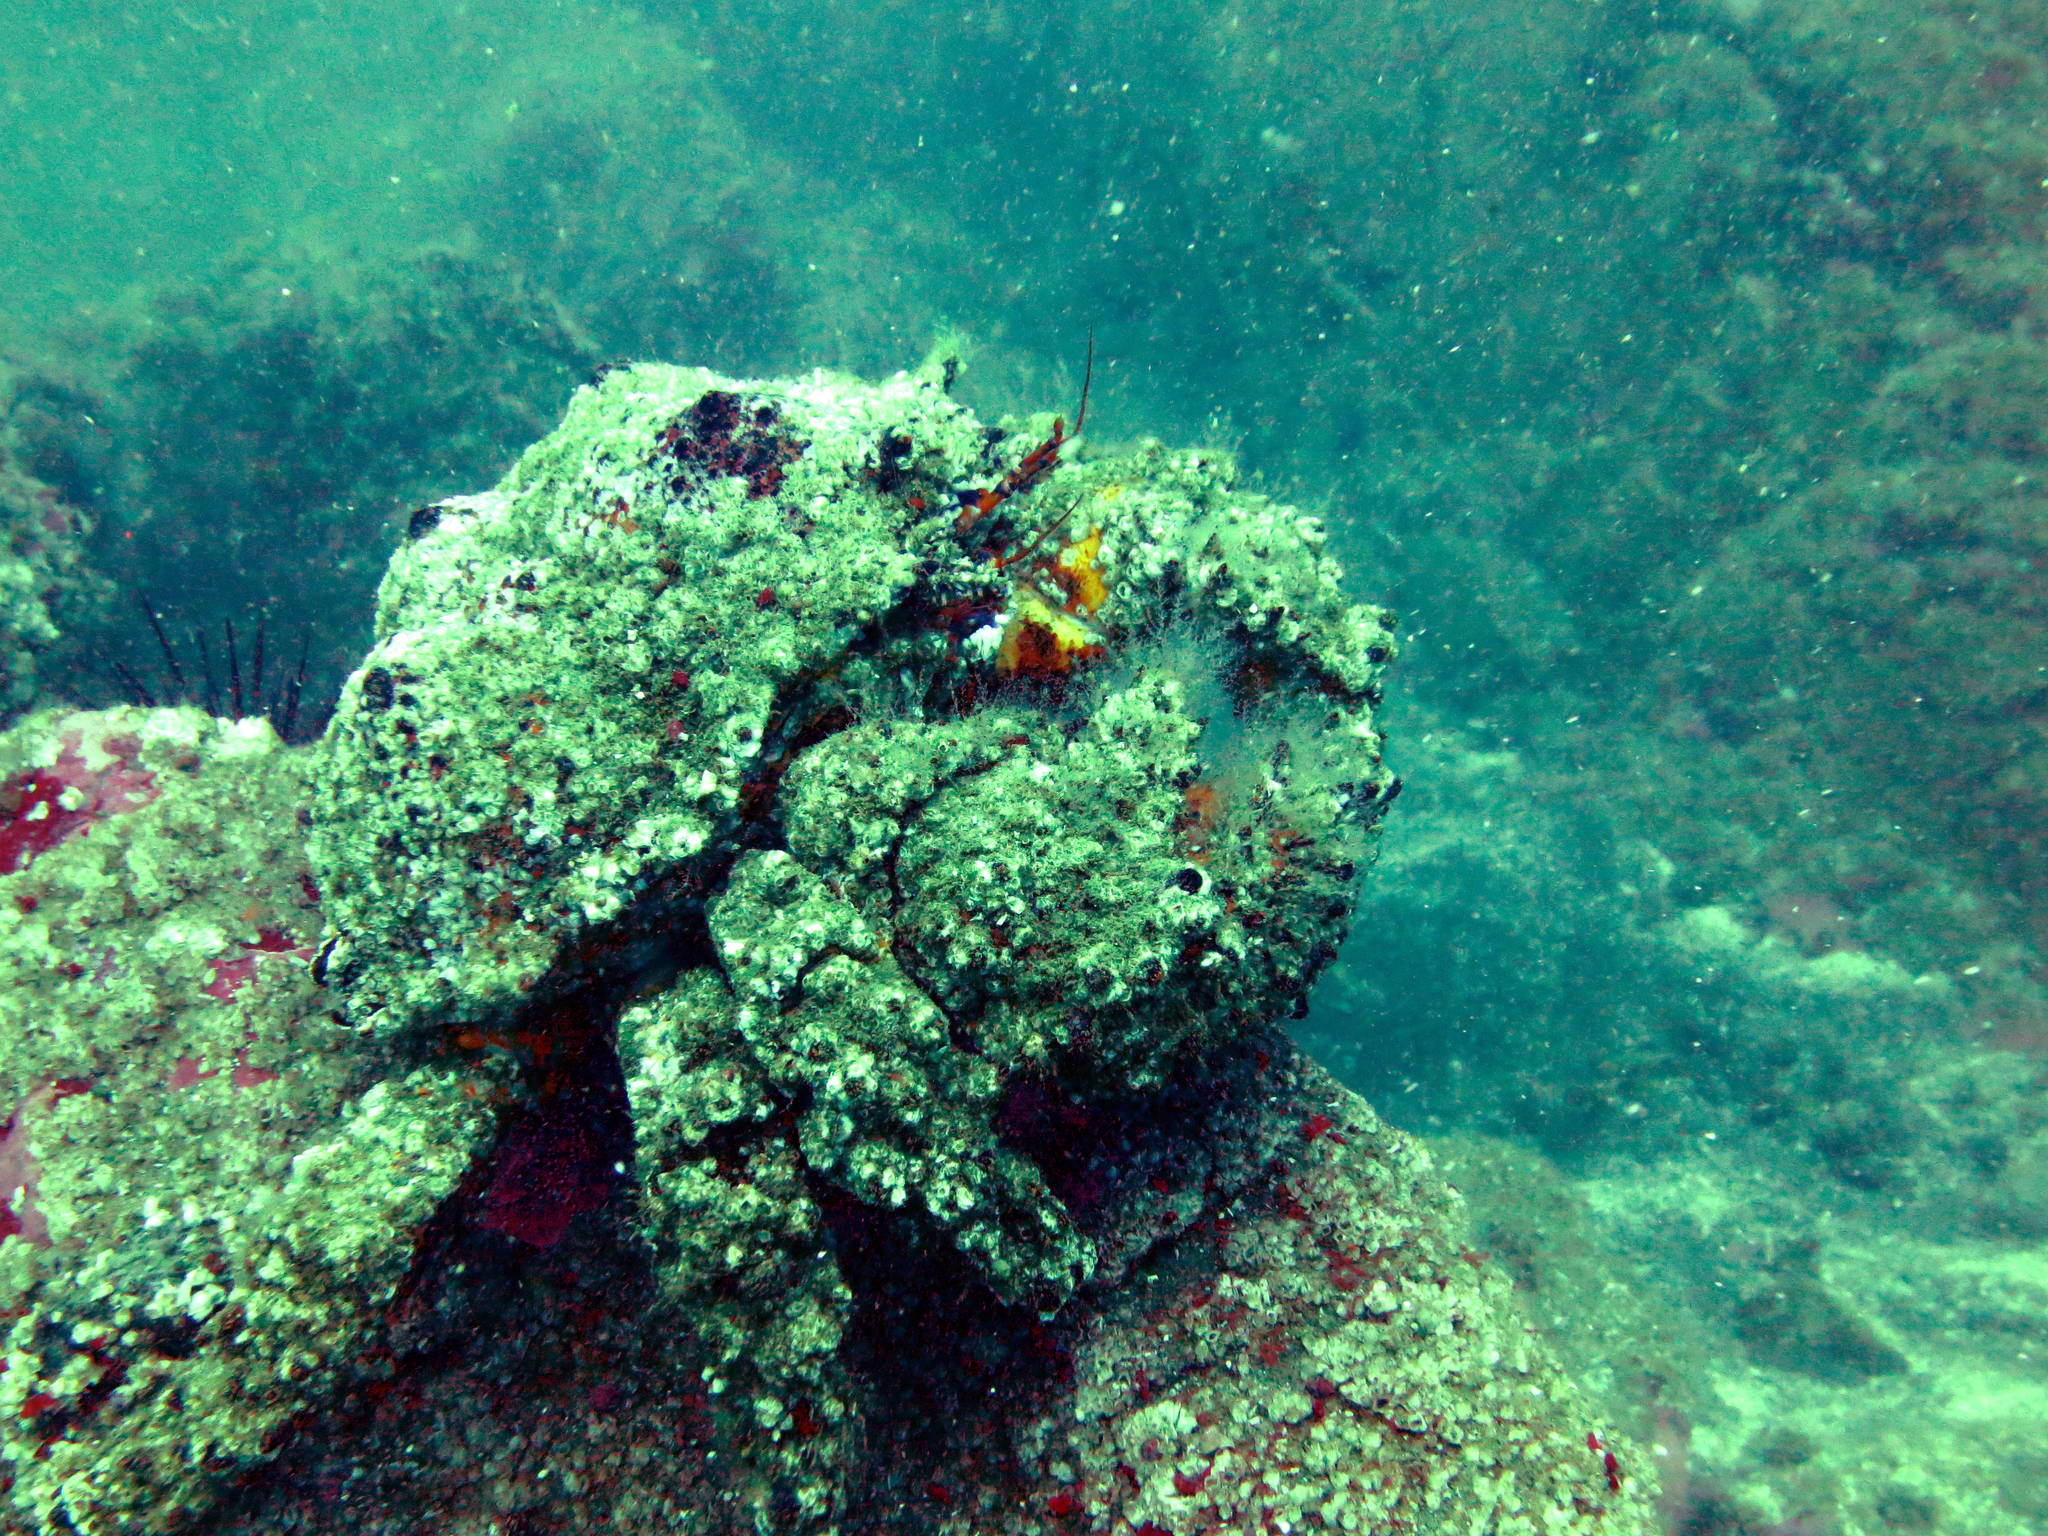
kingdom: Animalia
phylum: Arthropoda
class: Malacostraca
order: Decapoda
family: Lithodidae
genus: Echidnocerus
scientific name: Echidnocerus cibarius
